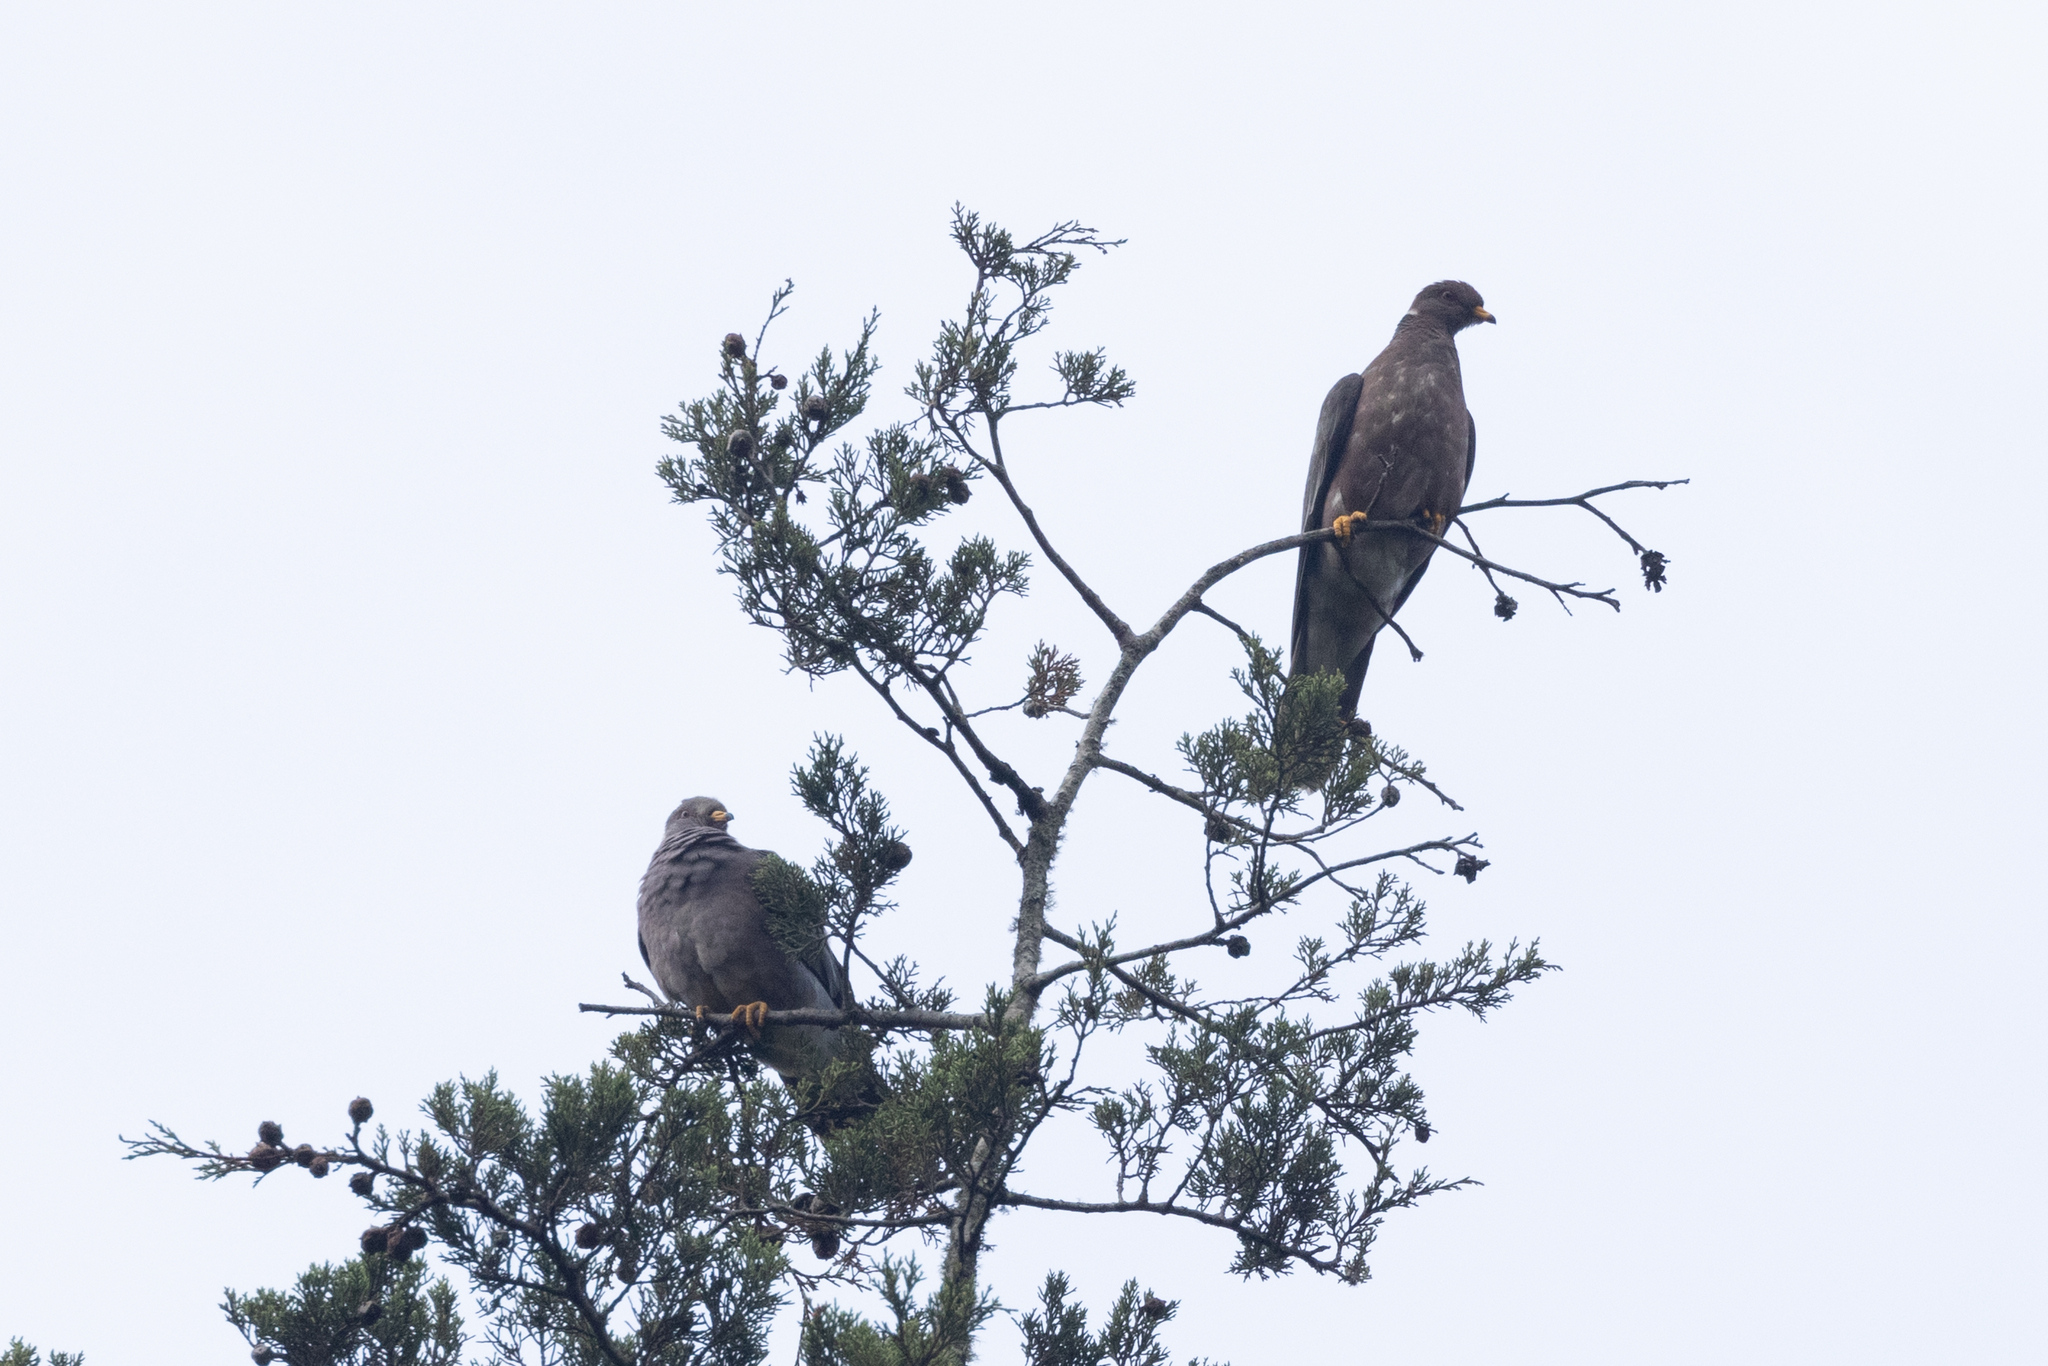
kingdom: Animalia
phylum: Chordata
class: Aves
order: Columbiformes
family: Columbidae
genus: Patagioenas
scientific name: Patagioenas fasciata
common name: Band-tailed pigeon
